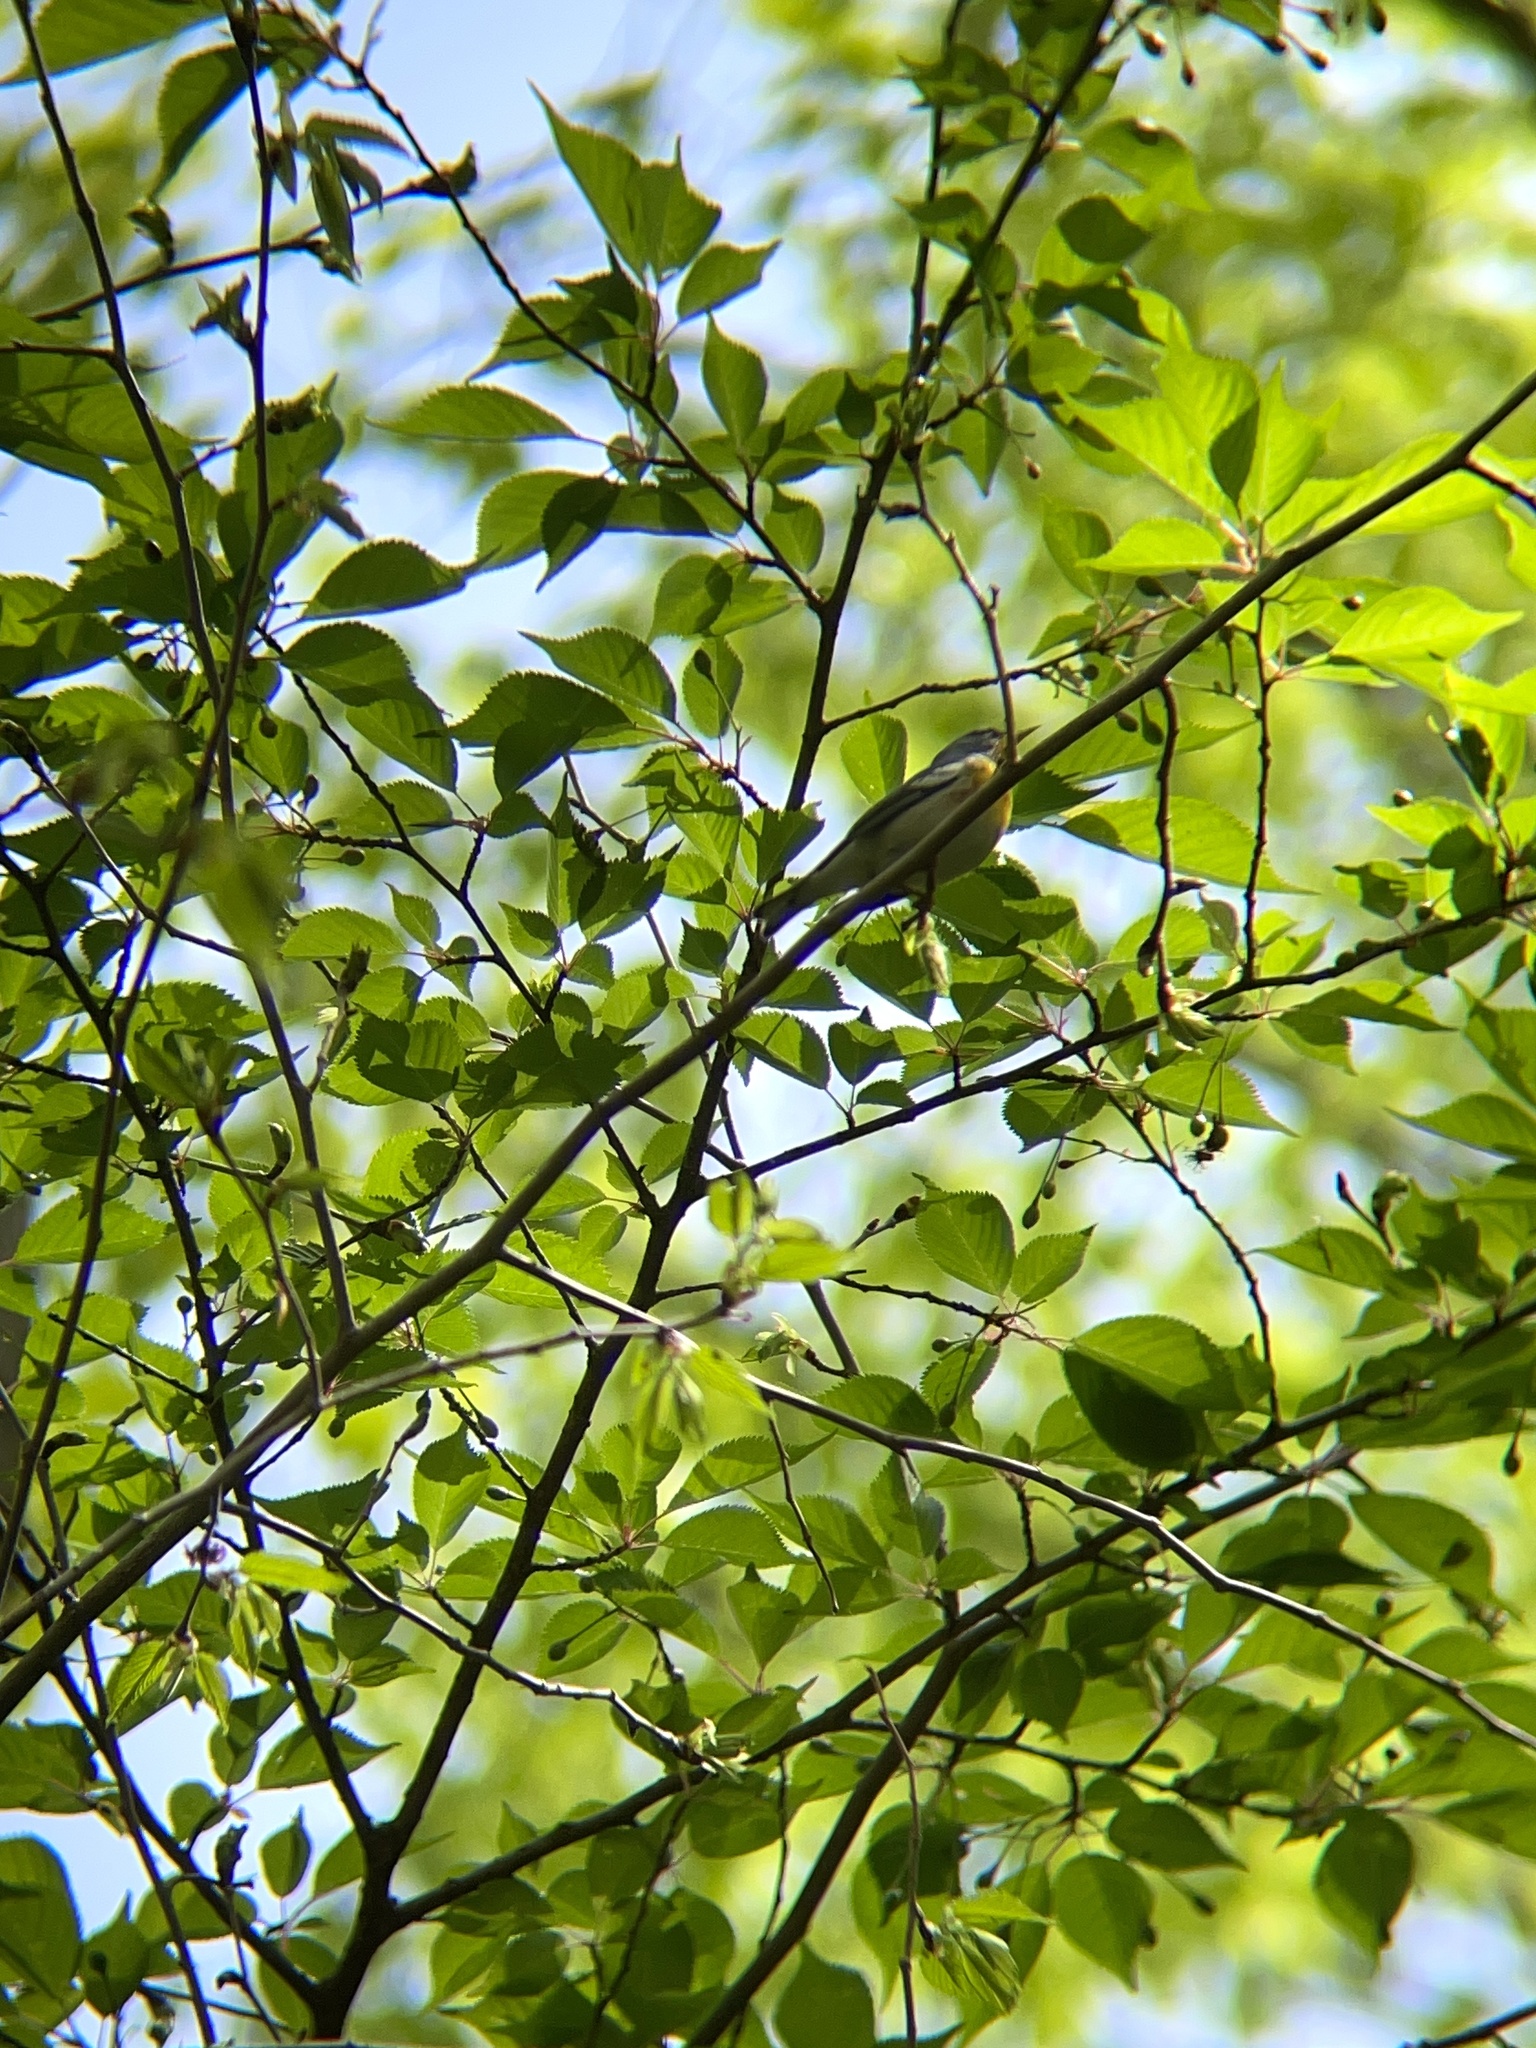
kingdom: Animalia
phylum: Chordata
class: Aves
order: Passeriformes
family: Parulidae
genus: Setophaga
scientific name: Setophaga americana
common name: Northern parula
